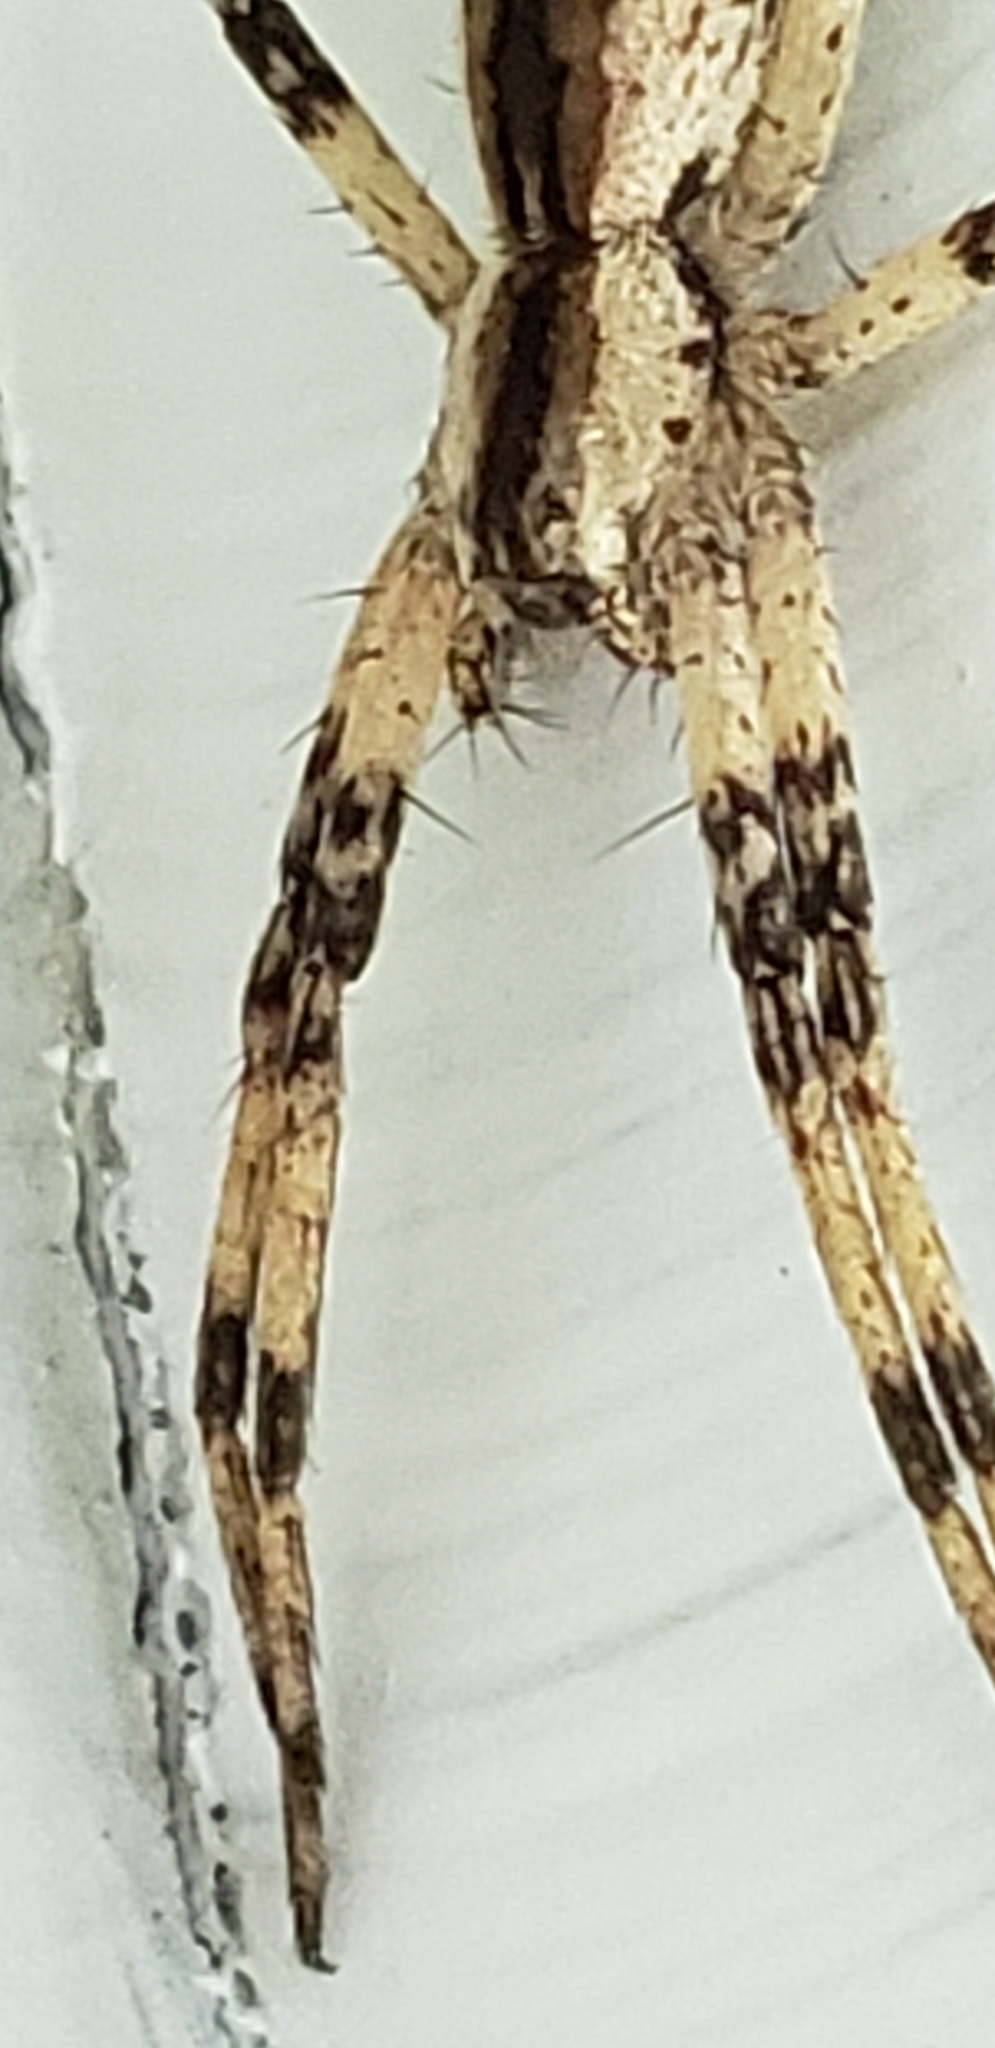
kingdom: Animalia
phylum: Arthropoda
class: Arachnida
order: Araneae
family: Pisauridae
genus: Pisaurina
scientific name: Pisaurina mira
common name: American nursery web spider
